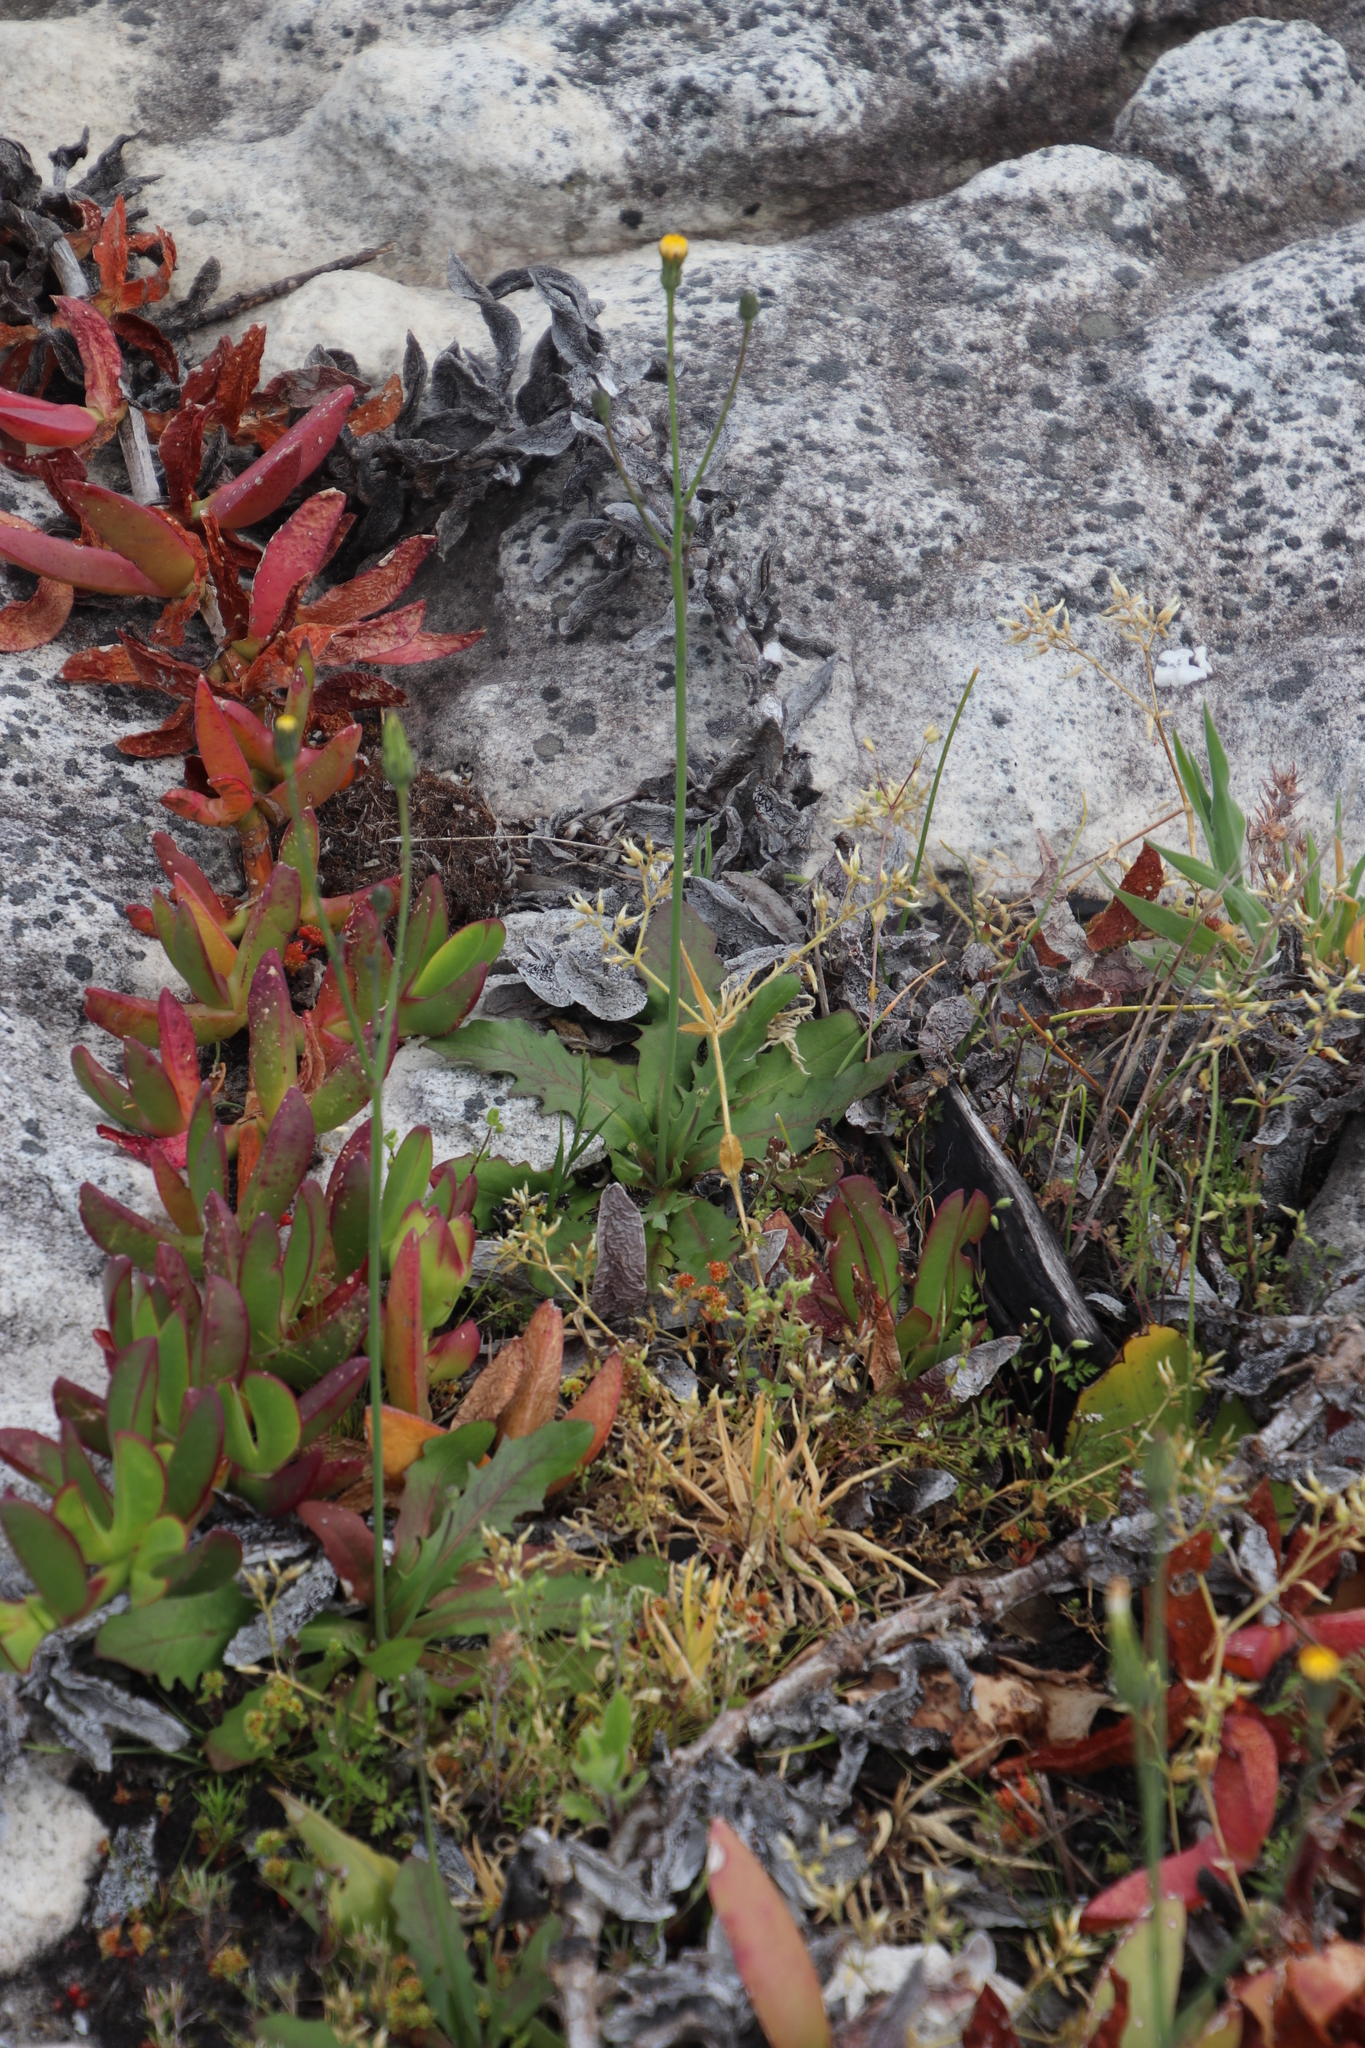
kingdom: Plantae
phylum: Tracheophyta
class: Magnoliopsida
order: Asterales
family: Asteraceae
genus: Hypochaeris
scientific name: Hypochaeris radicata
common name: Flatweed
